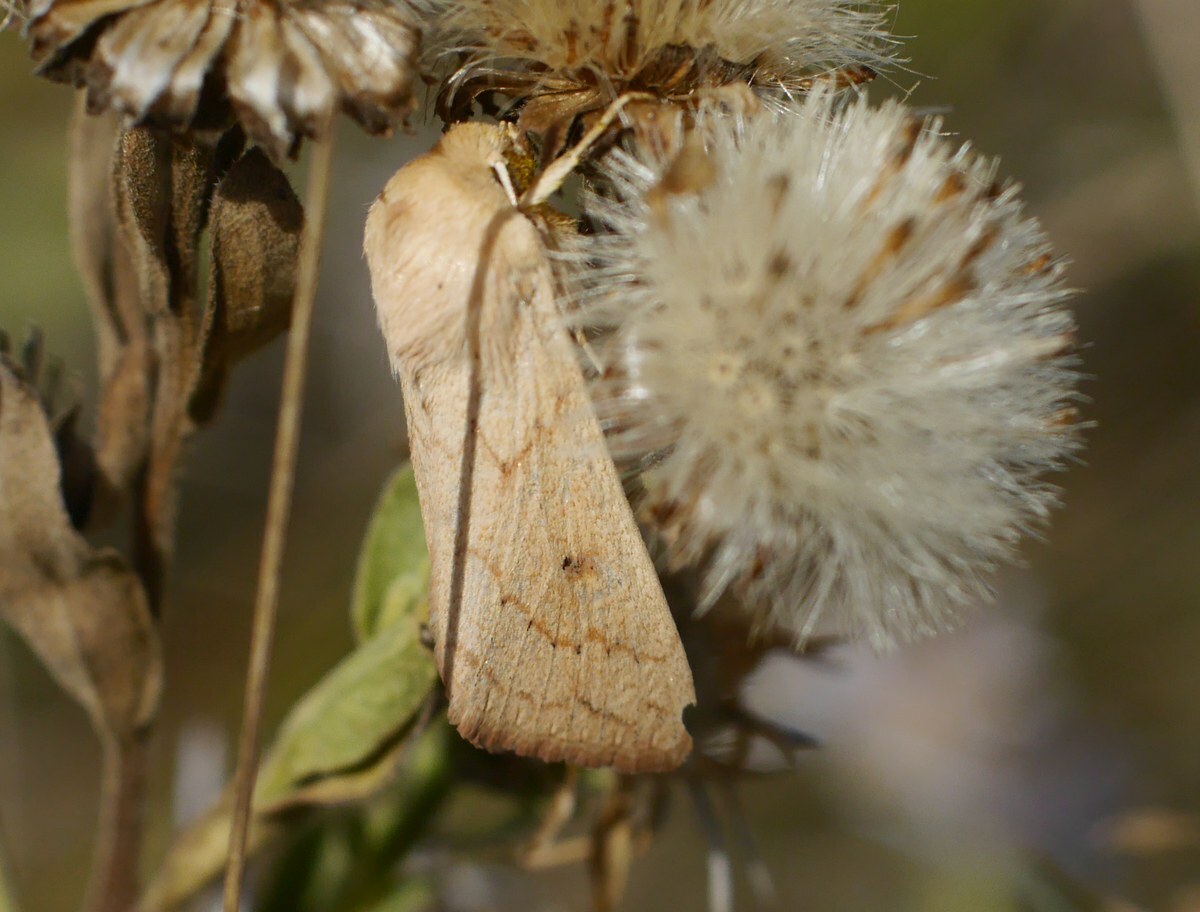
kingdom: Animalia
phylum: Arthropoda
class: Insecta
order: Lepidoptera
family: Noctuidae
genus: Mythimna
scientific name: Mythimna vitellina
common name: Delicate
